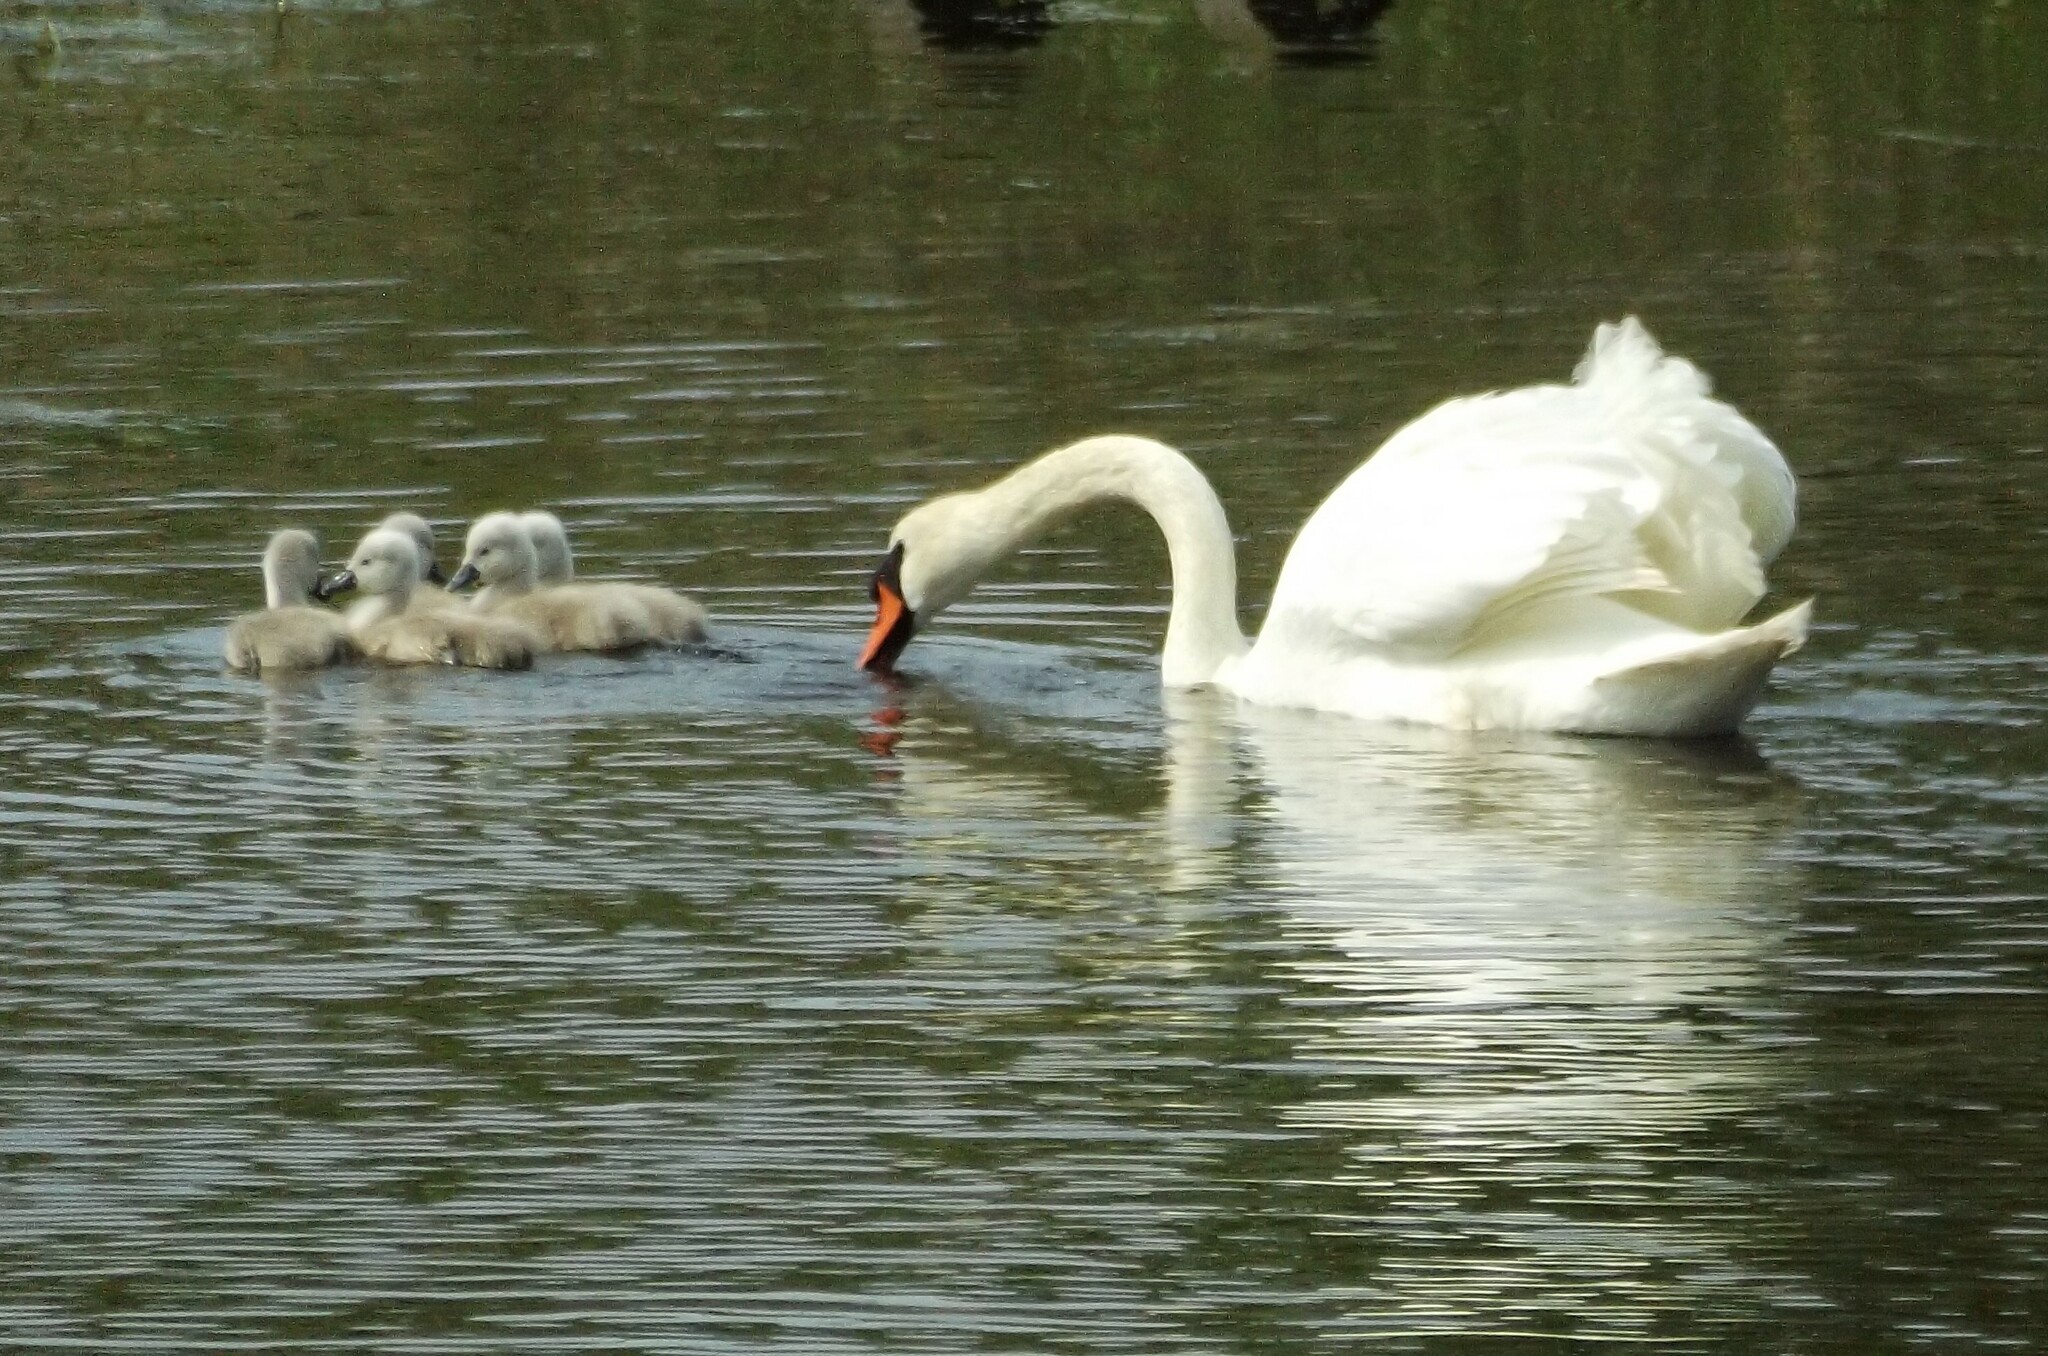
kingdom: Animalia
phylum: Chordata
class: Aves
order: Anseriformes
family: Anatidae
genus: Cygnus
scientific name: Cygnus olor
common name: Mute swan
